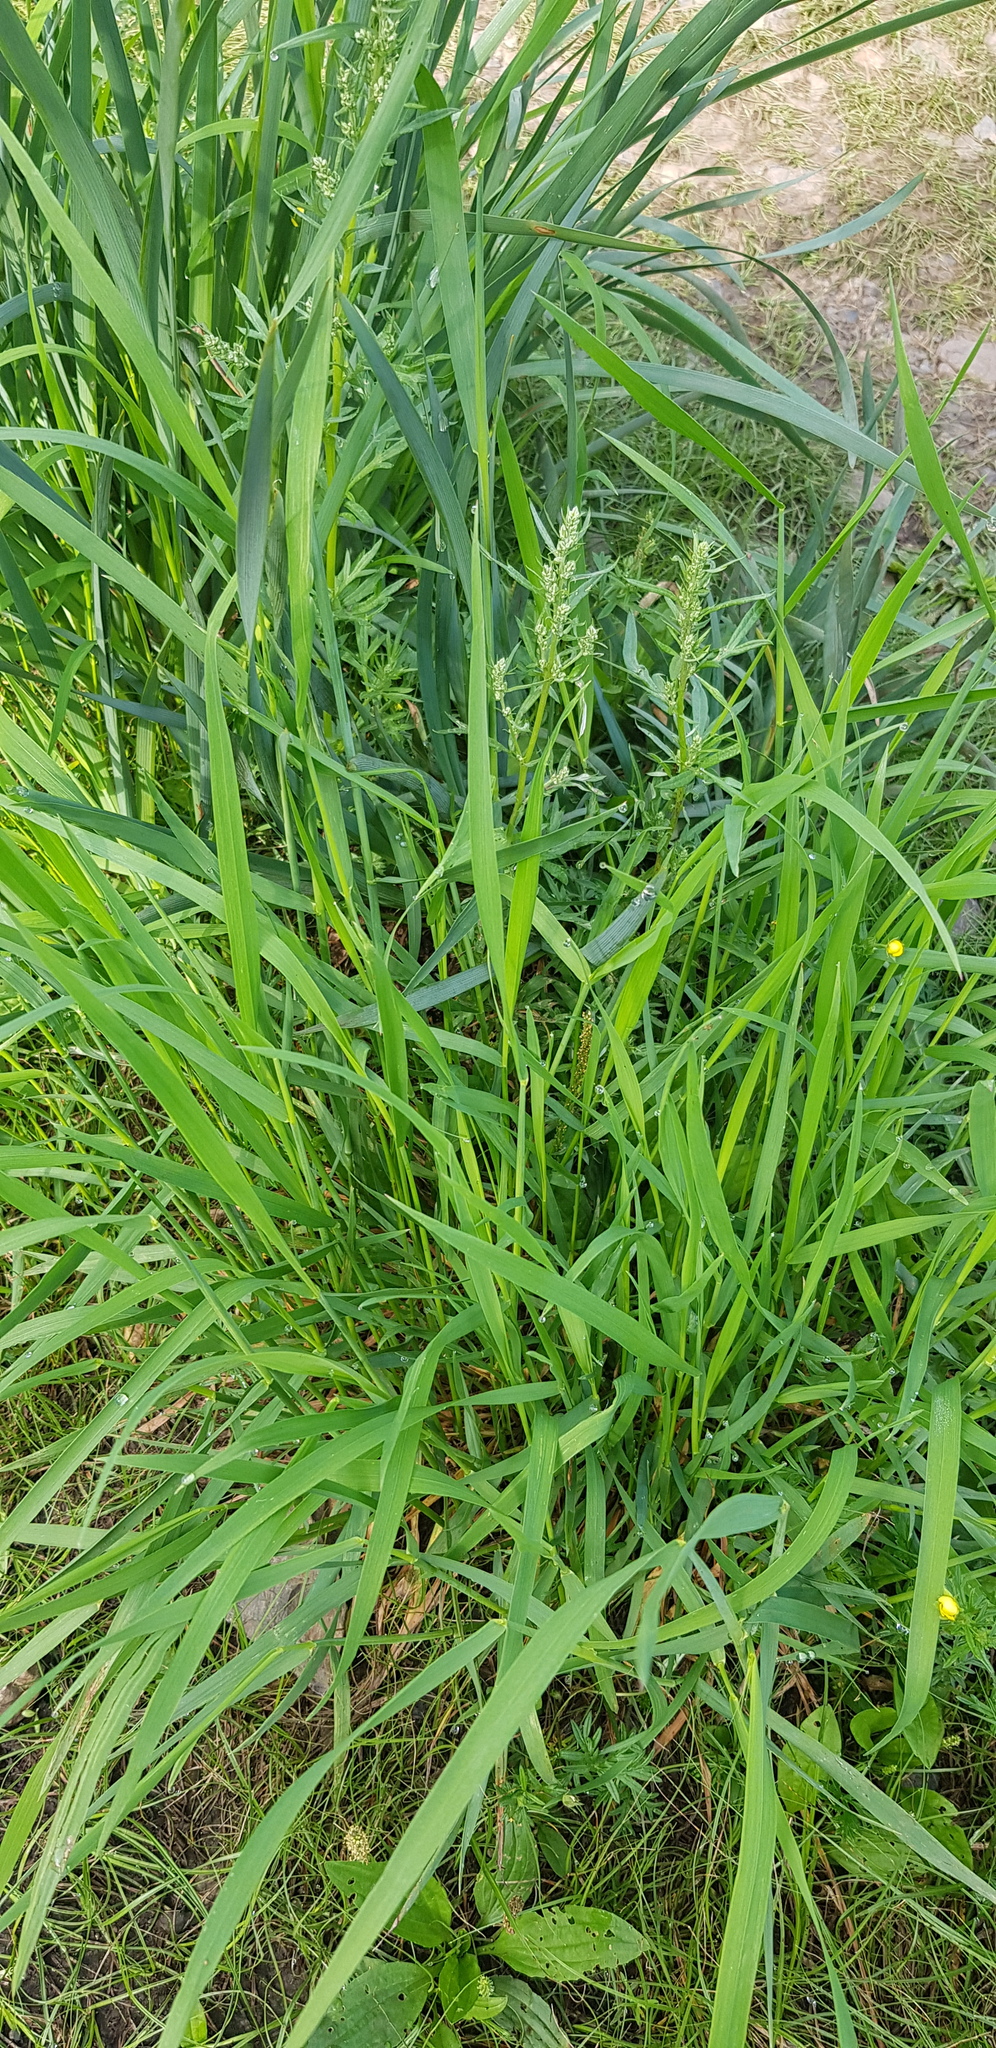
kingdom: Plantae
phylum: Tracheophyta
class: Liliopsida
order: Asparagales
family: Iridaceae
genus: Iris
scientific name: Iris lactea
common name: White-flower chinese iris
